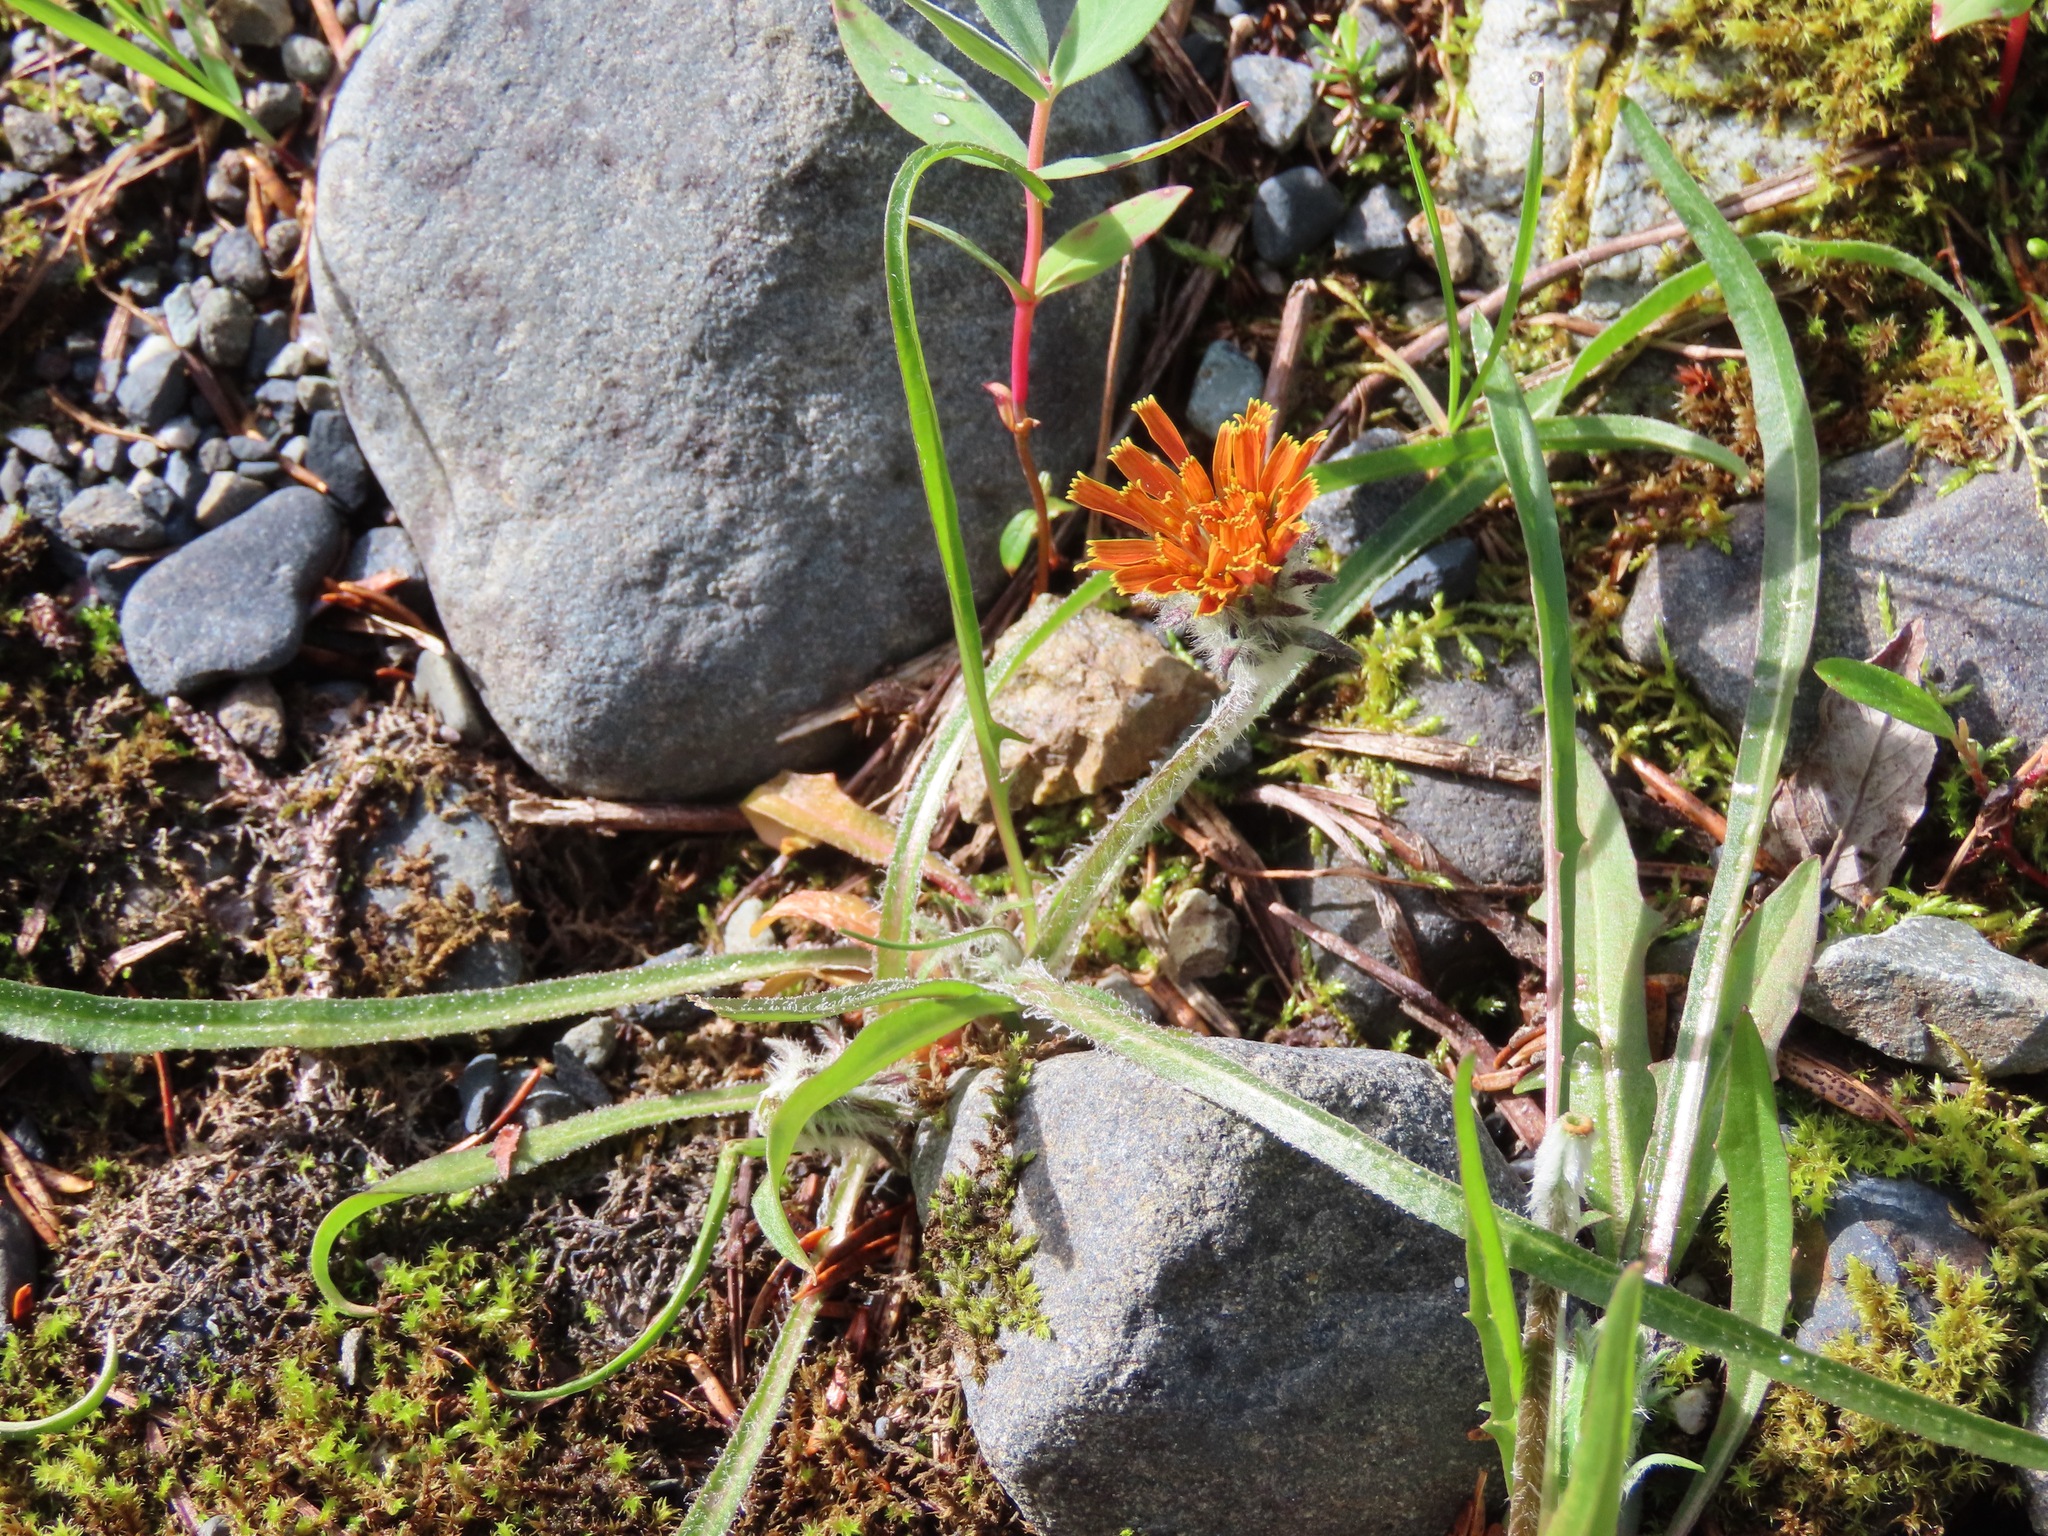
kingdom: Plantae
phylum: Tracheophyta
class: Magnoliopsida
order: Asterales
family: Asteraceae
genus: Agoseris
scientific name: Agoseris aurantiaca
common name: Mountain agoseris
